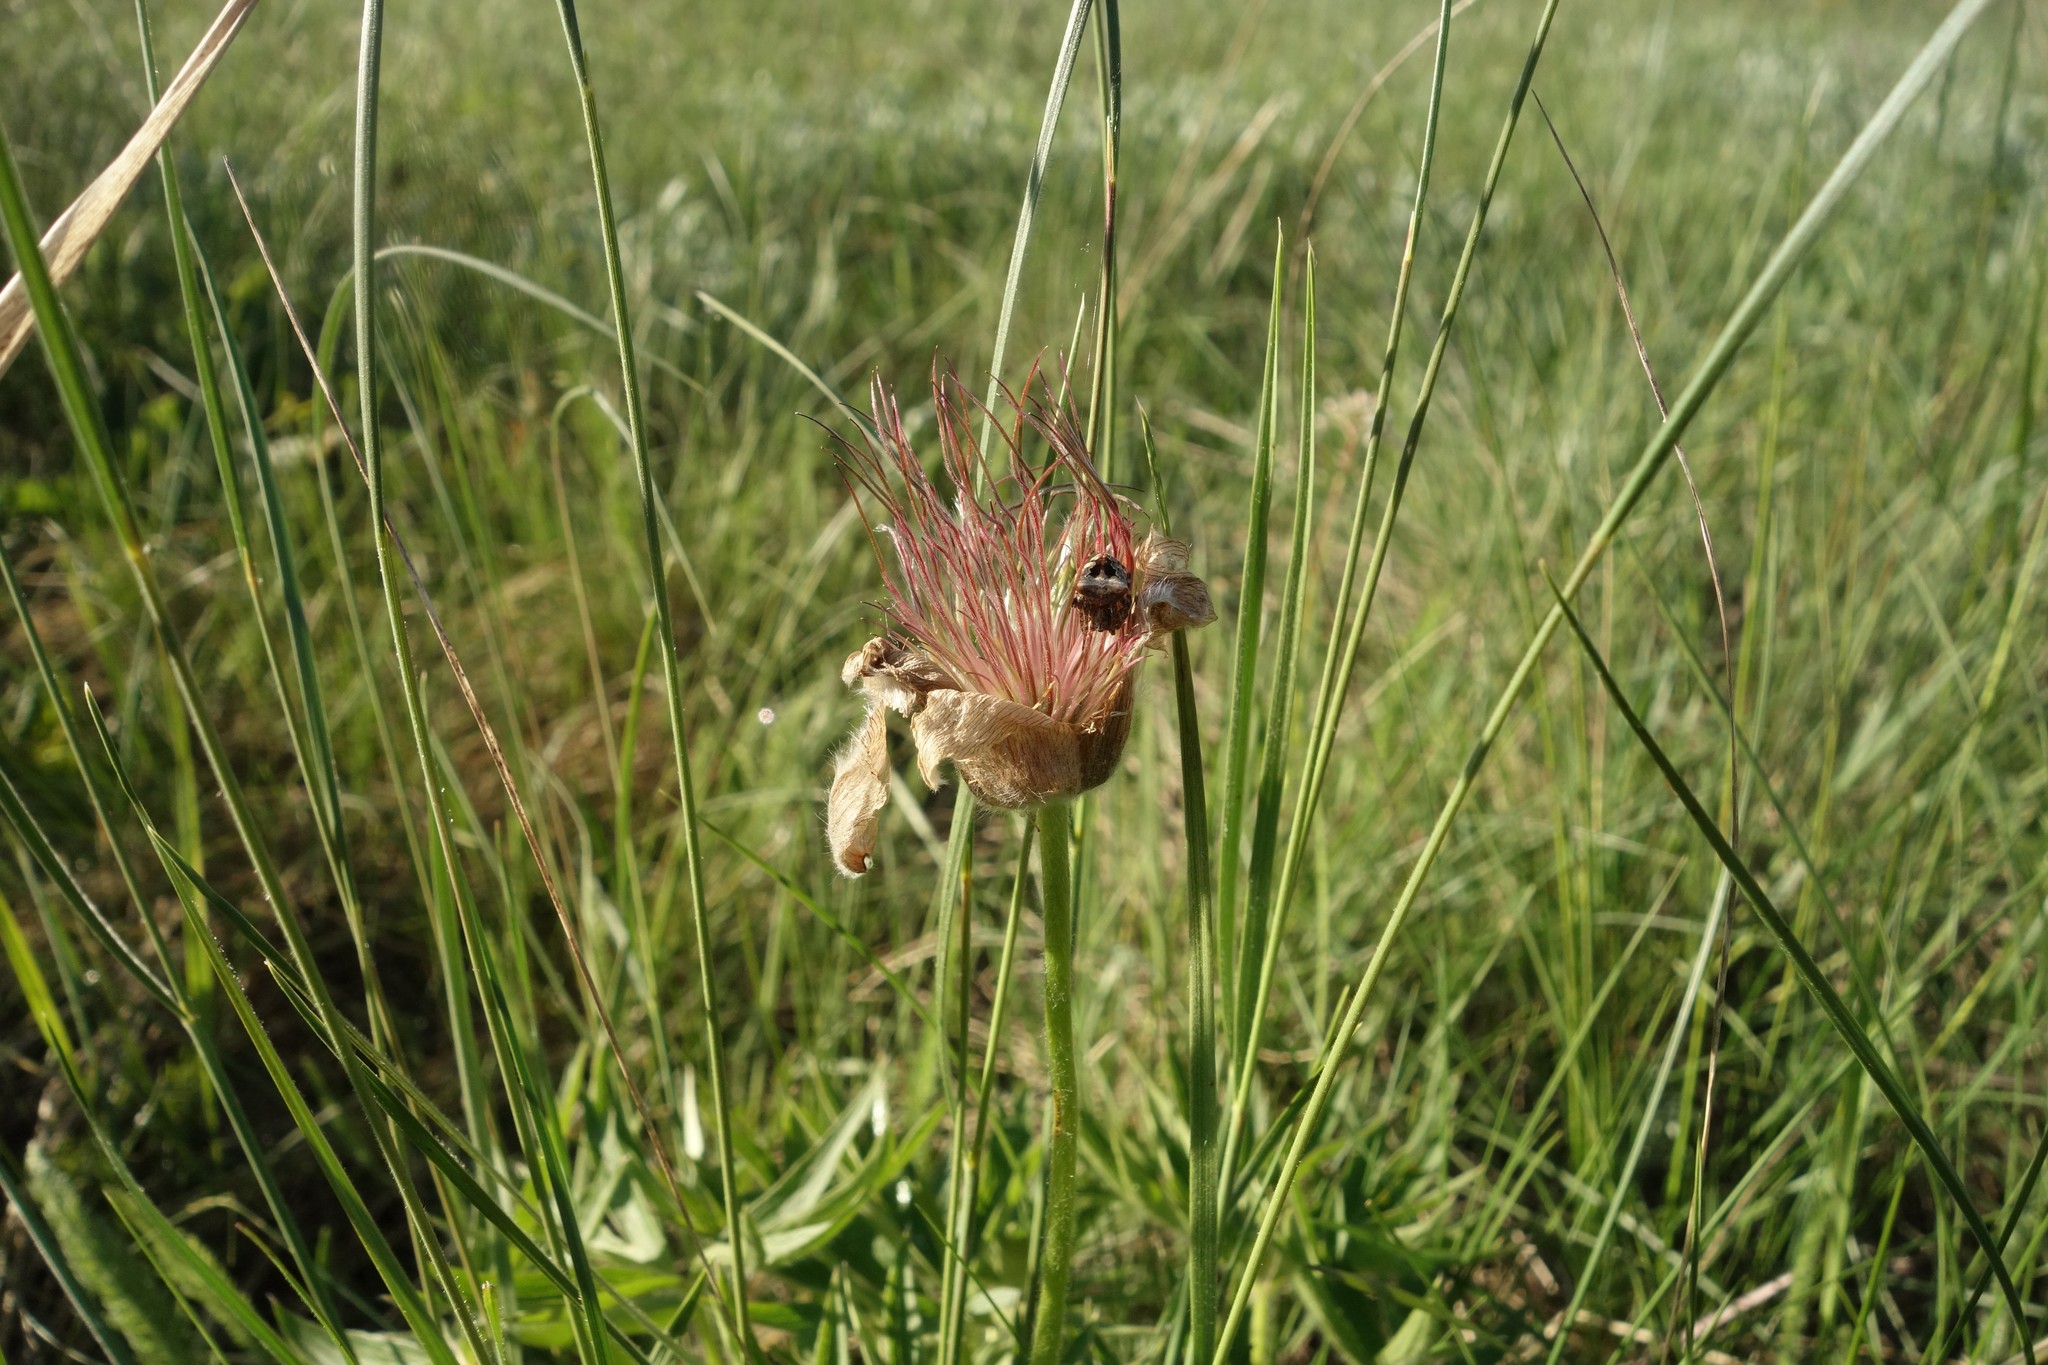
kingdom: Plantae
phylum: Tracheophyta
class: Magnoliopsida
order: Ranunculales
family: Ranunculaceae
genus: Pulsatilla
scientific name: Pulsatilla patens
